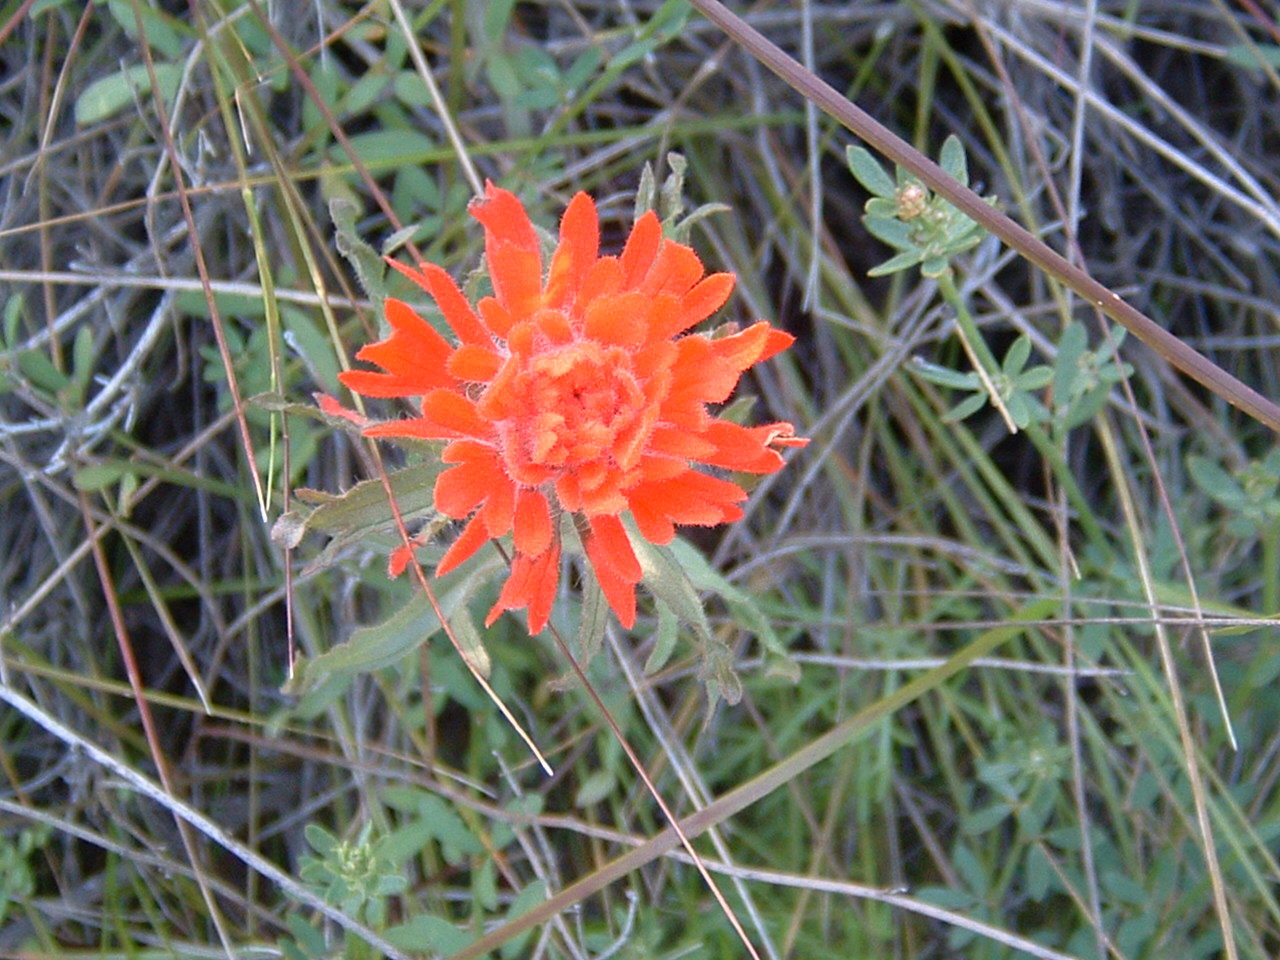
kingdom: Plantae
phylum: Tracheophyta
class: Magnoliopsida
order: Lamiales
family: Orobanchaceae
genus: Castilleja
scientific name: Castilleja affinis
